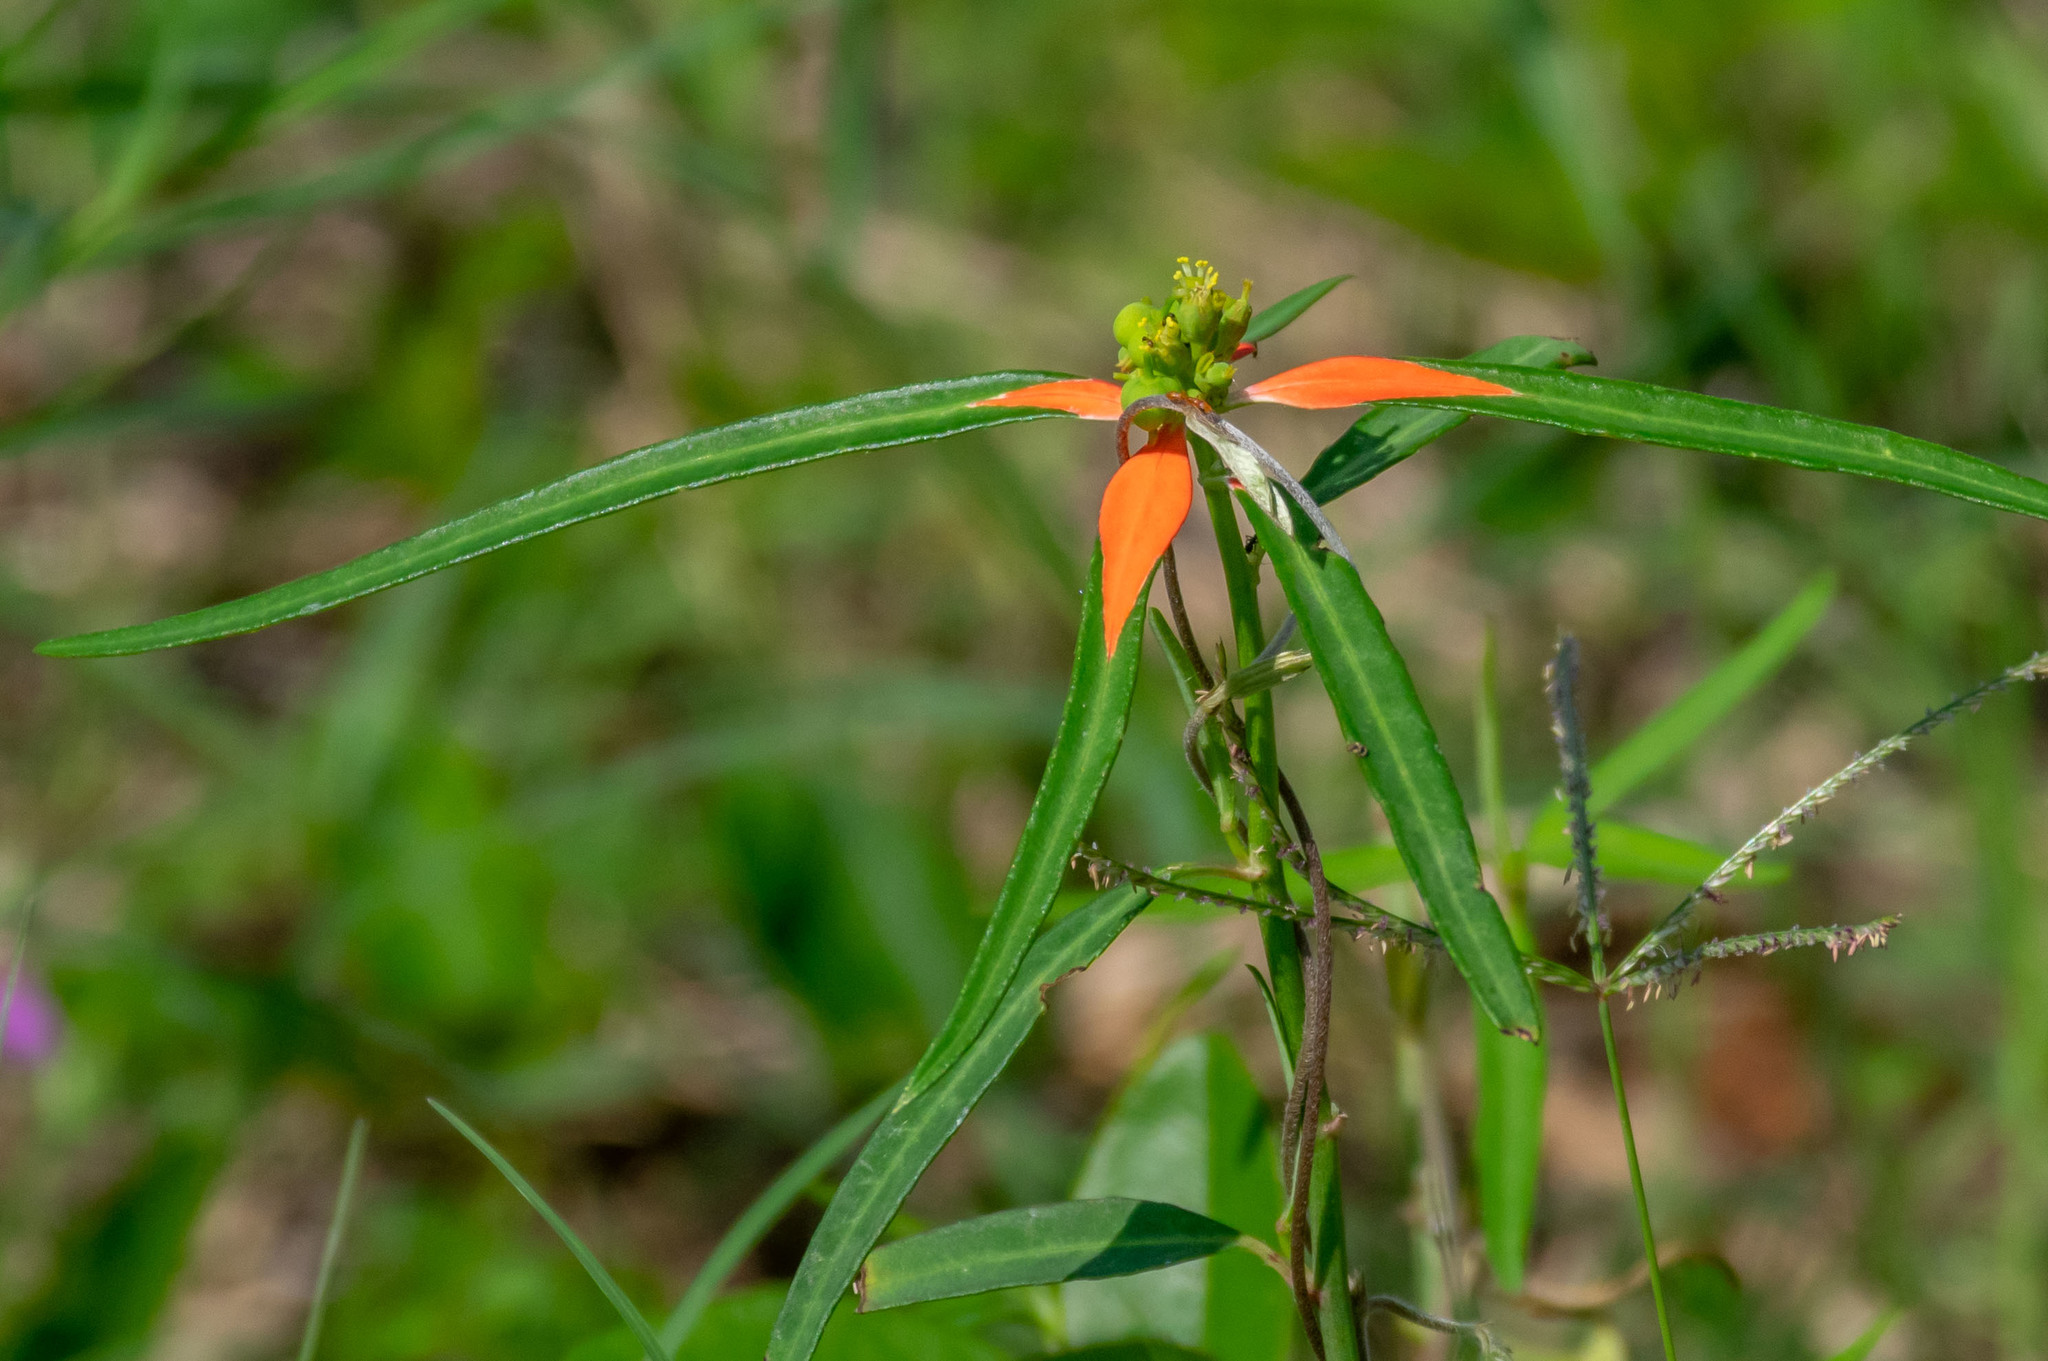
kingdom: Plantae
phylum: Tracheophyta
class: Magnoliopsida
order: Malpighiales
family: Euphorbiaceae
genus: Euphorbia
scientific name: Euphorbia heterophylla
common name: Mexican fireplant
